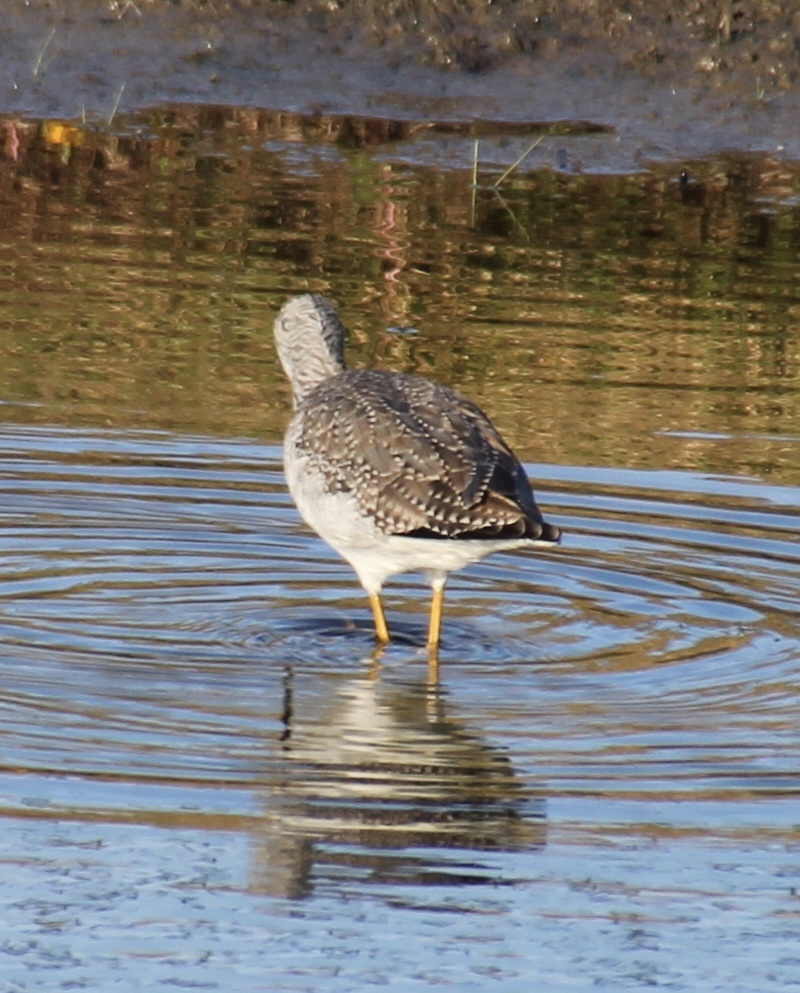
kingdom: Animalia
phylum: Chordata
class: Aves
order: Charadriiformes
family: Scolopacidae
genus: Tringa
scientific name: Tringa melanoleuca
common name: Greater yellowlegs
